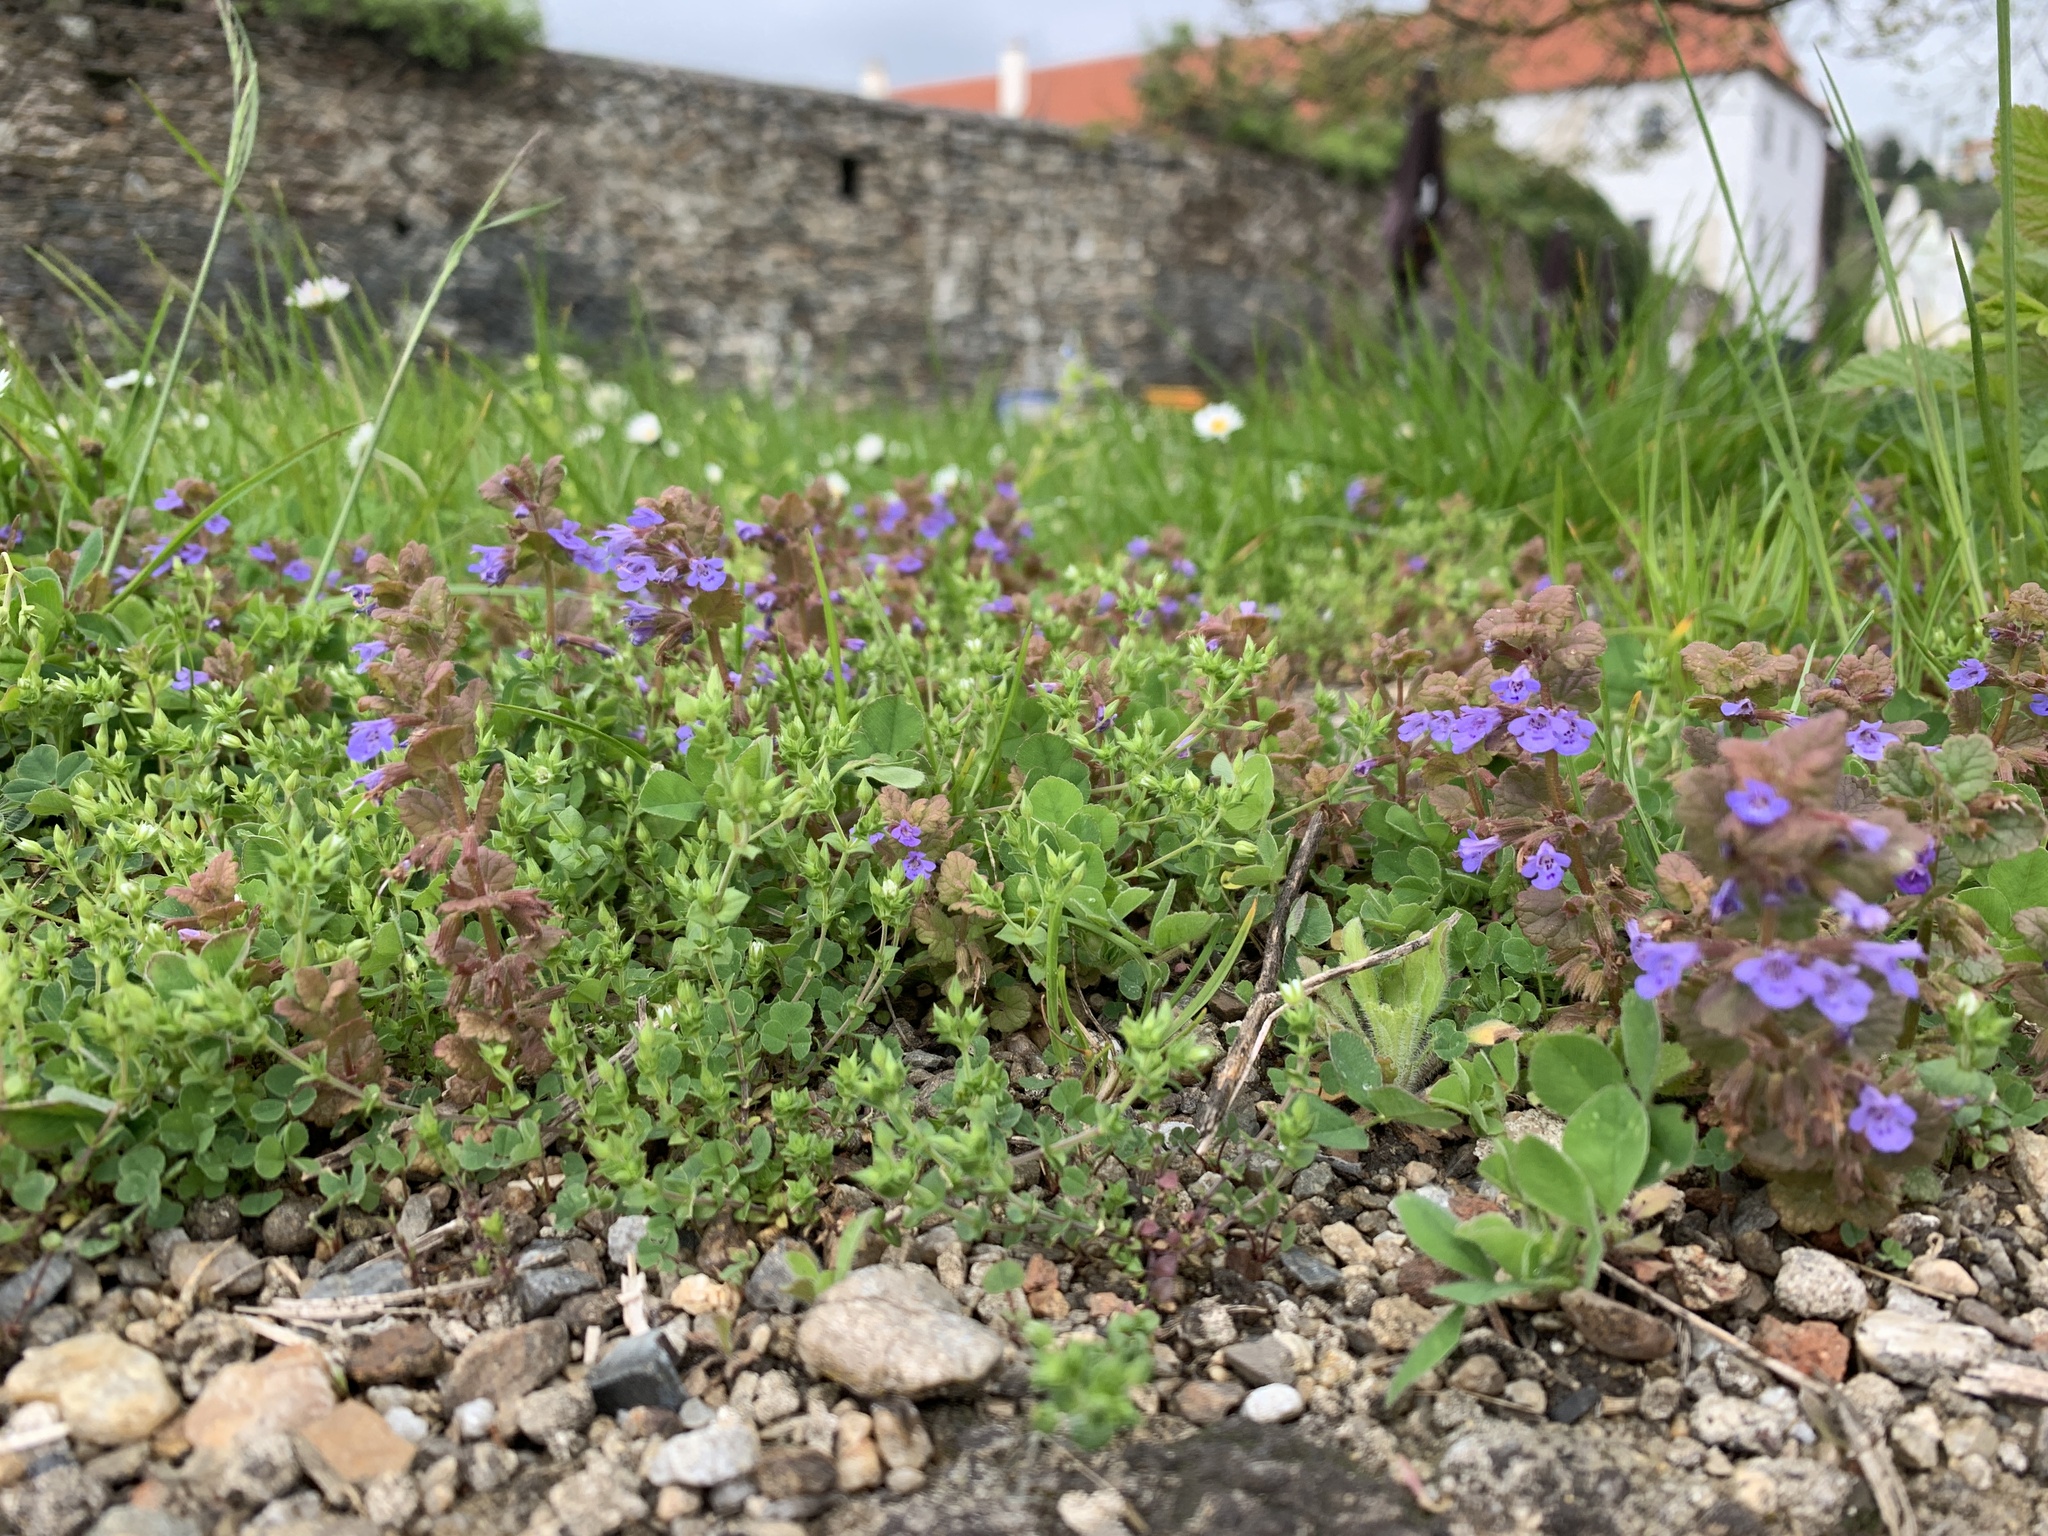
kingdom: Plantae
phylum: Tracheophyta
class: Magnoliopsida
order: Lamiales
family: Lamiaceae
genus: Glechoma
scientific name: Glechoma hederacea
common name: Ground ivy
